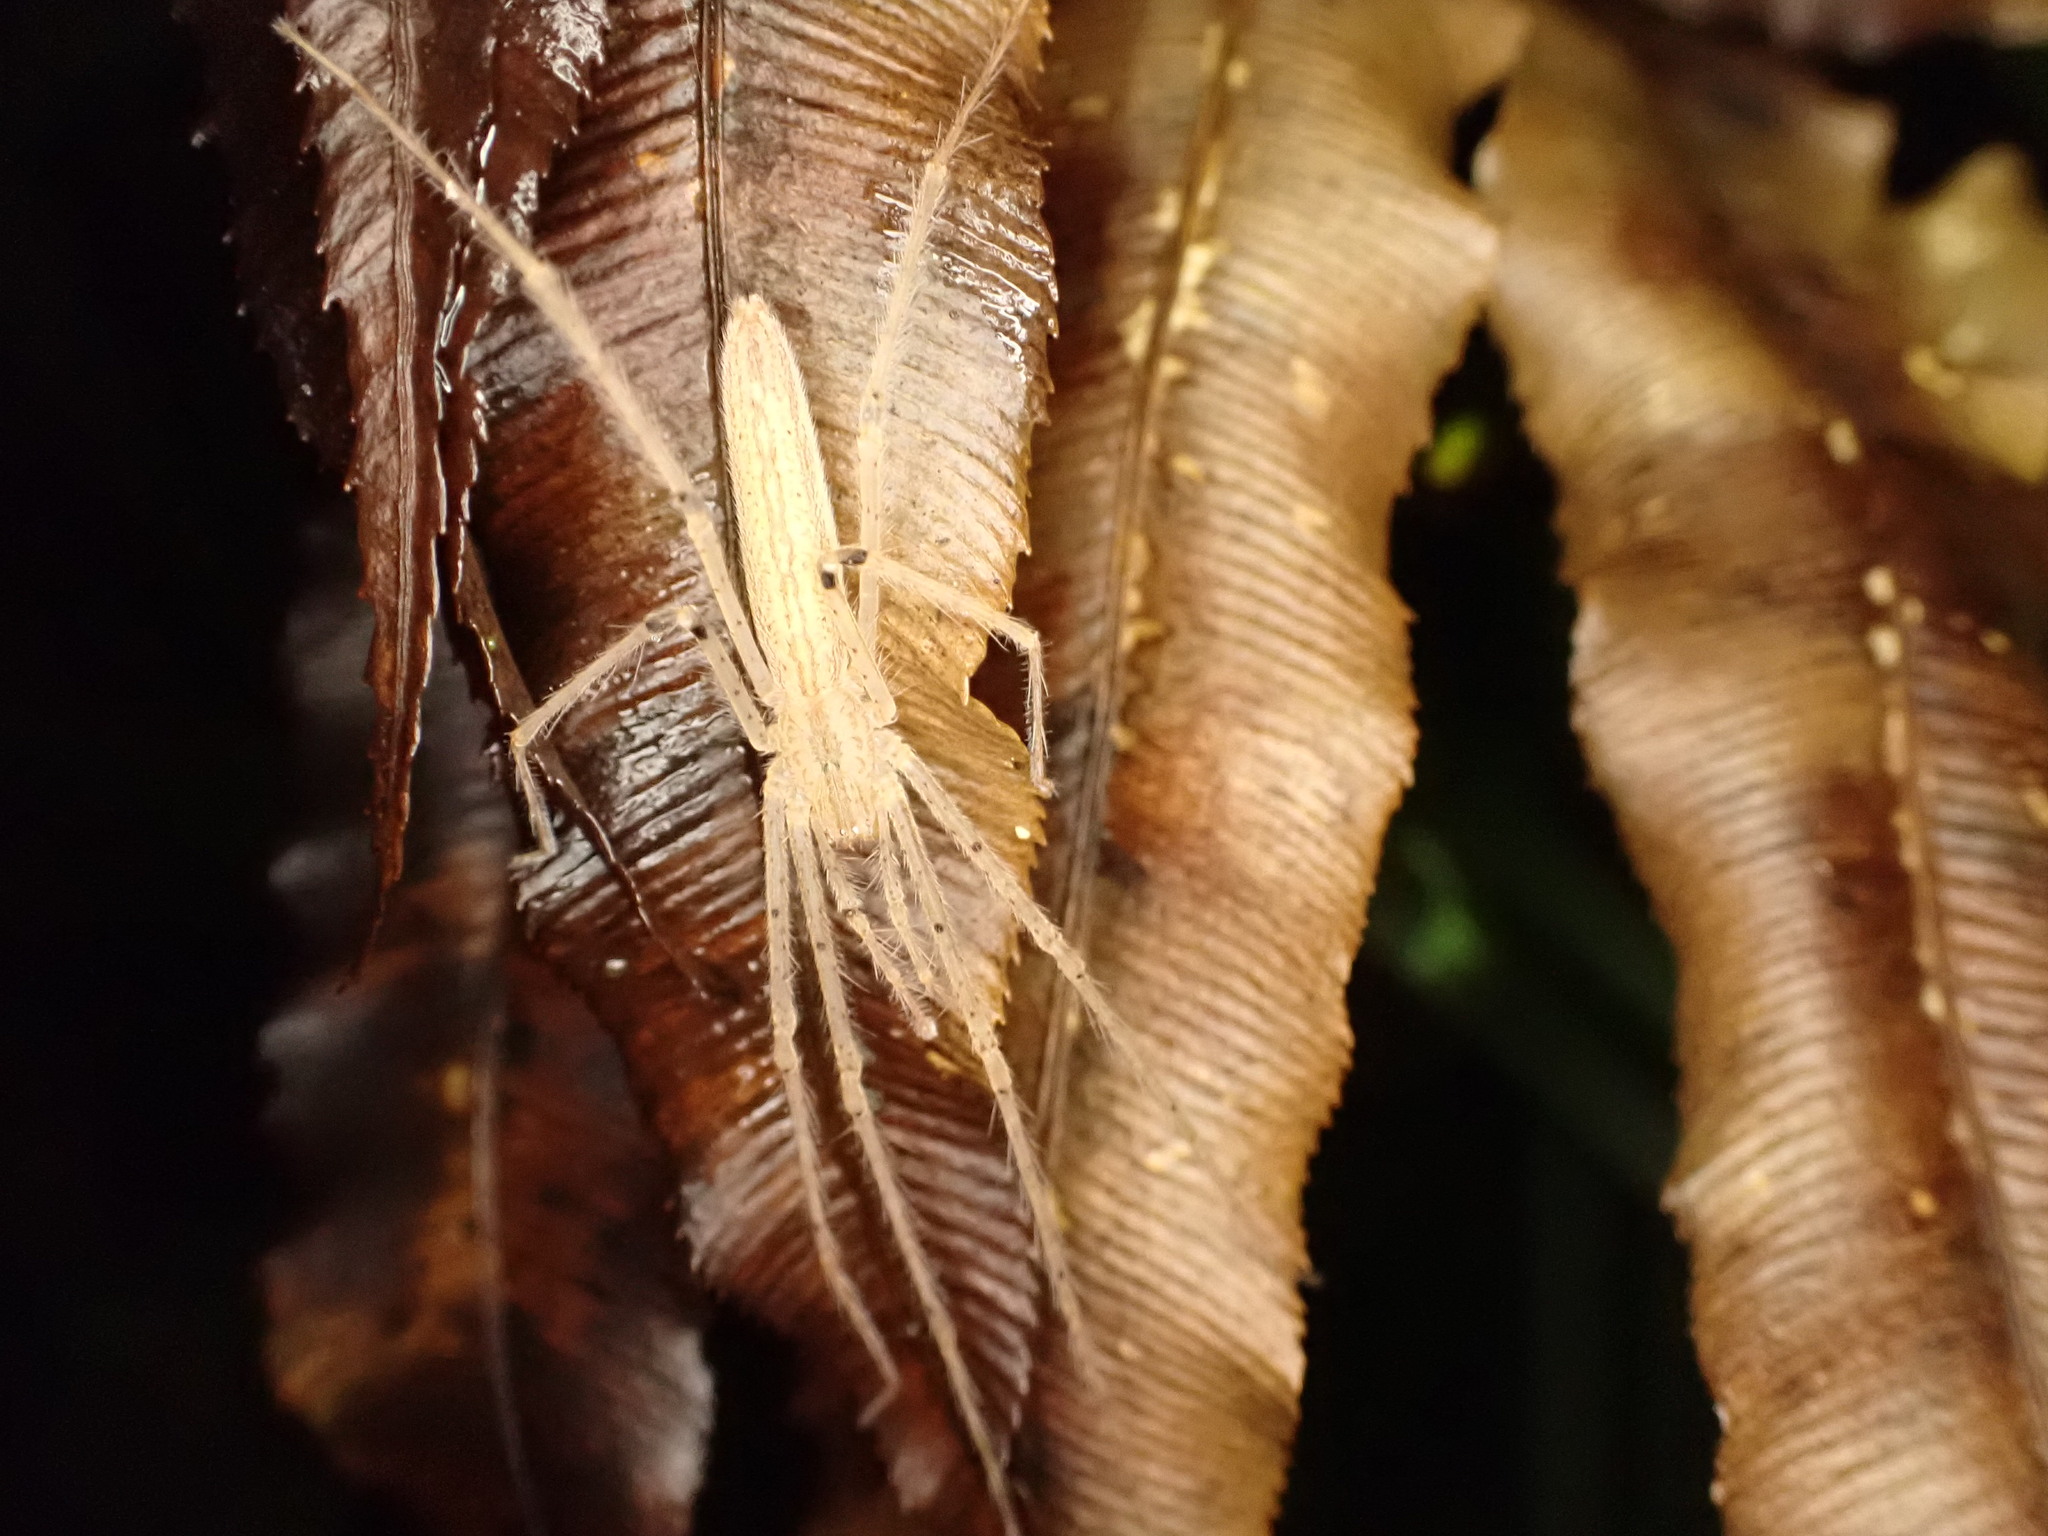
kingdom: Animalia
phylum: Arthropoda
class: Arachnida
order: Araneae
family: Desidae
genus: Ischalea
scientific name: Ischalea spinipes
